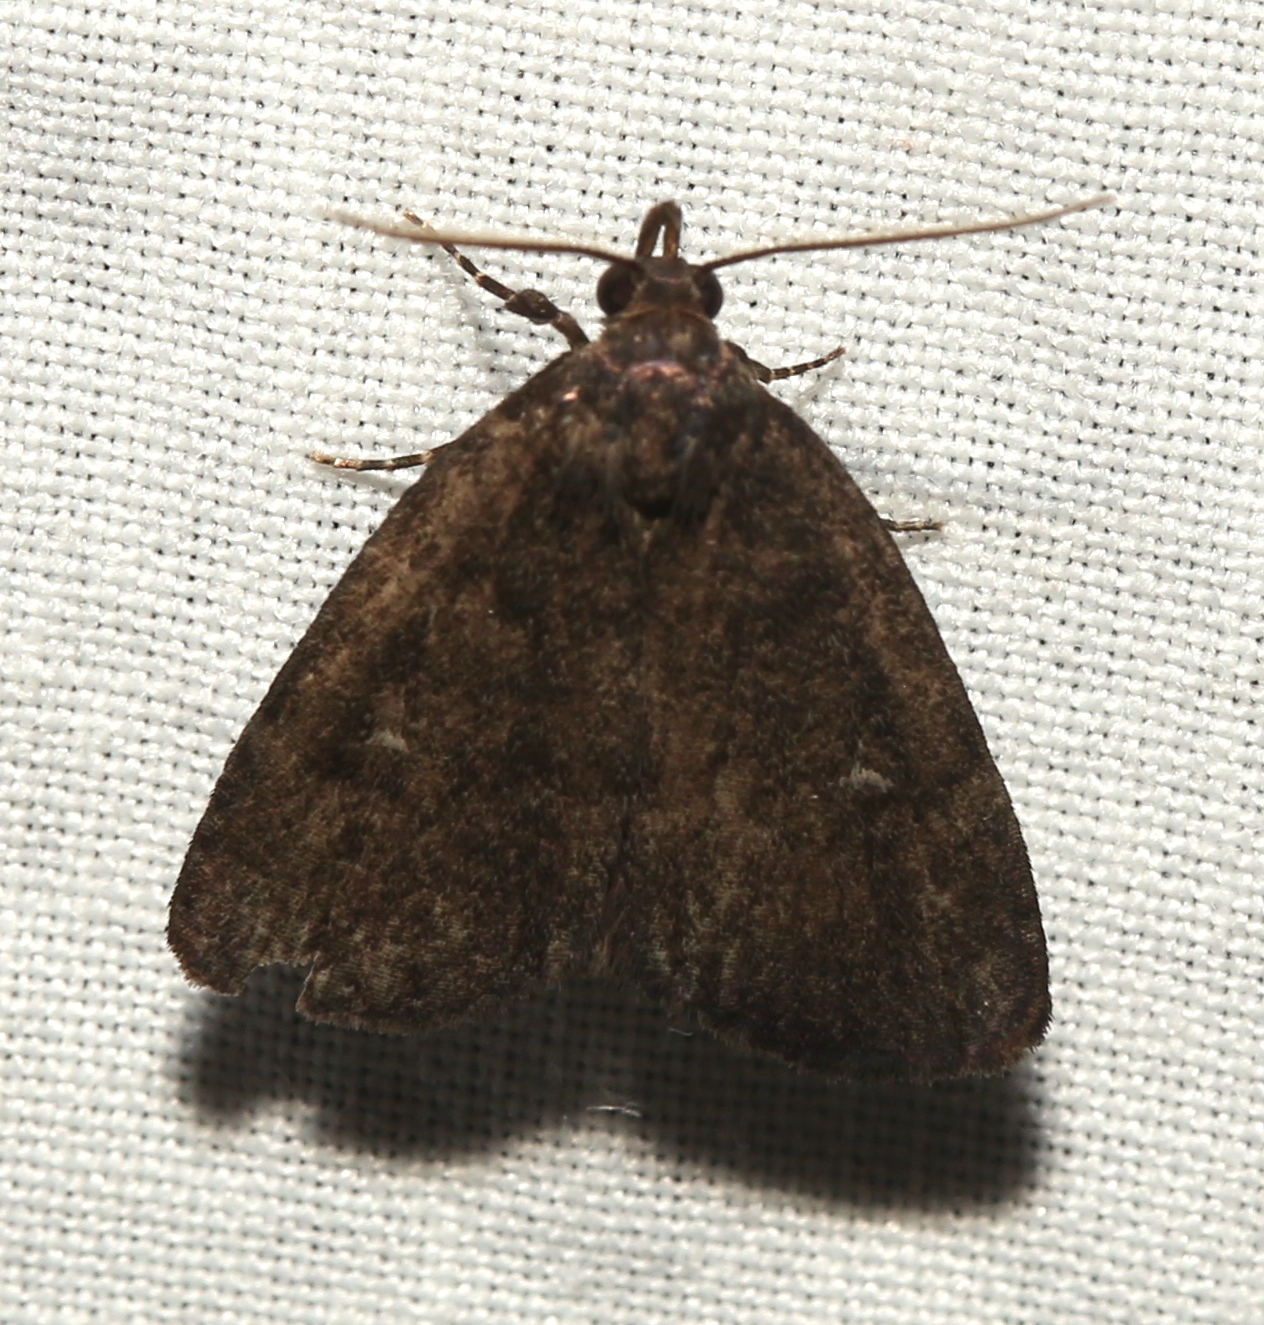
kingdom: Animalia
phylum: Arthropoda
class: Insecta
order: Lepidoptera
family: Erebidae
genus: Idia
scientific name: Idia rotundalis
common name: Rotund idia moth
